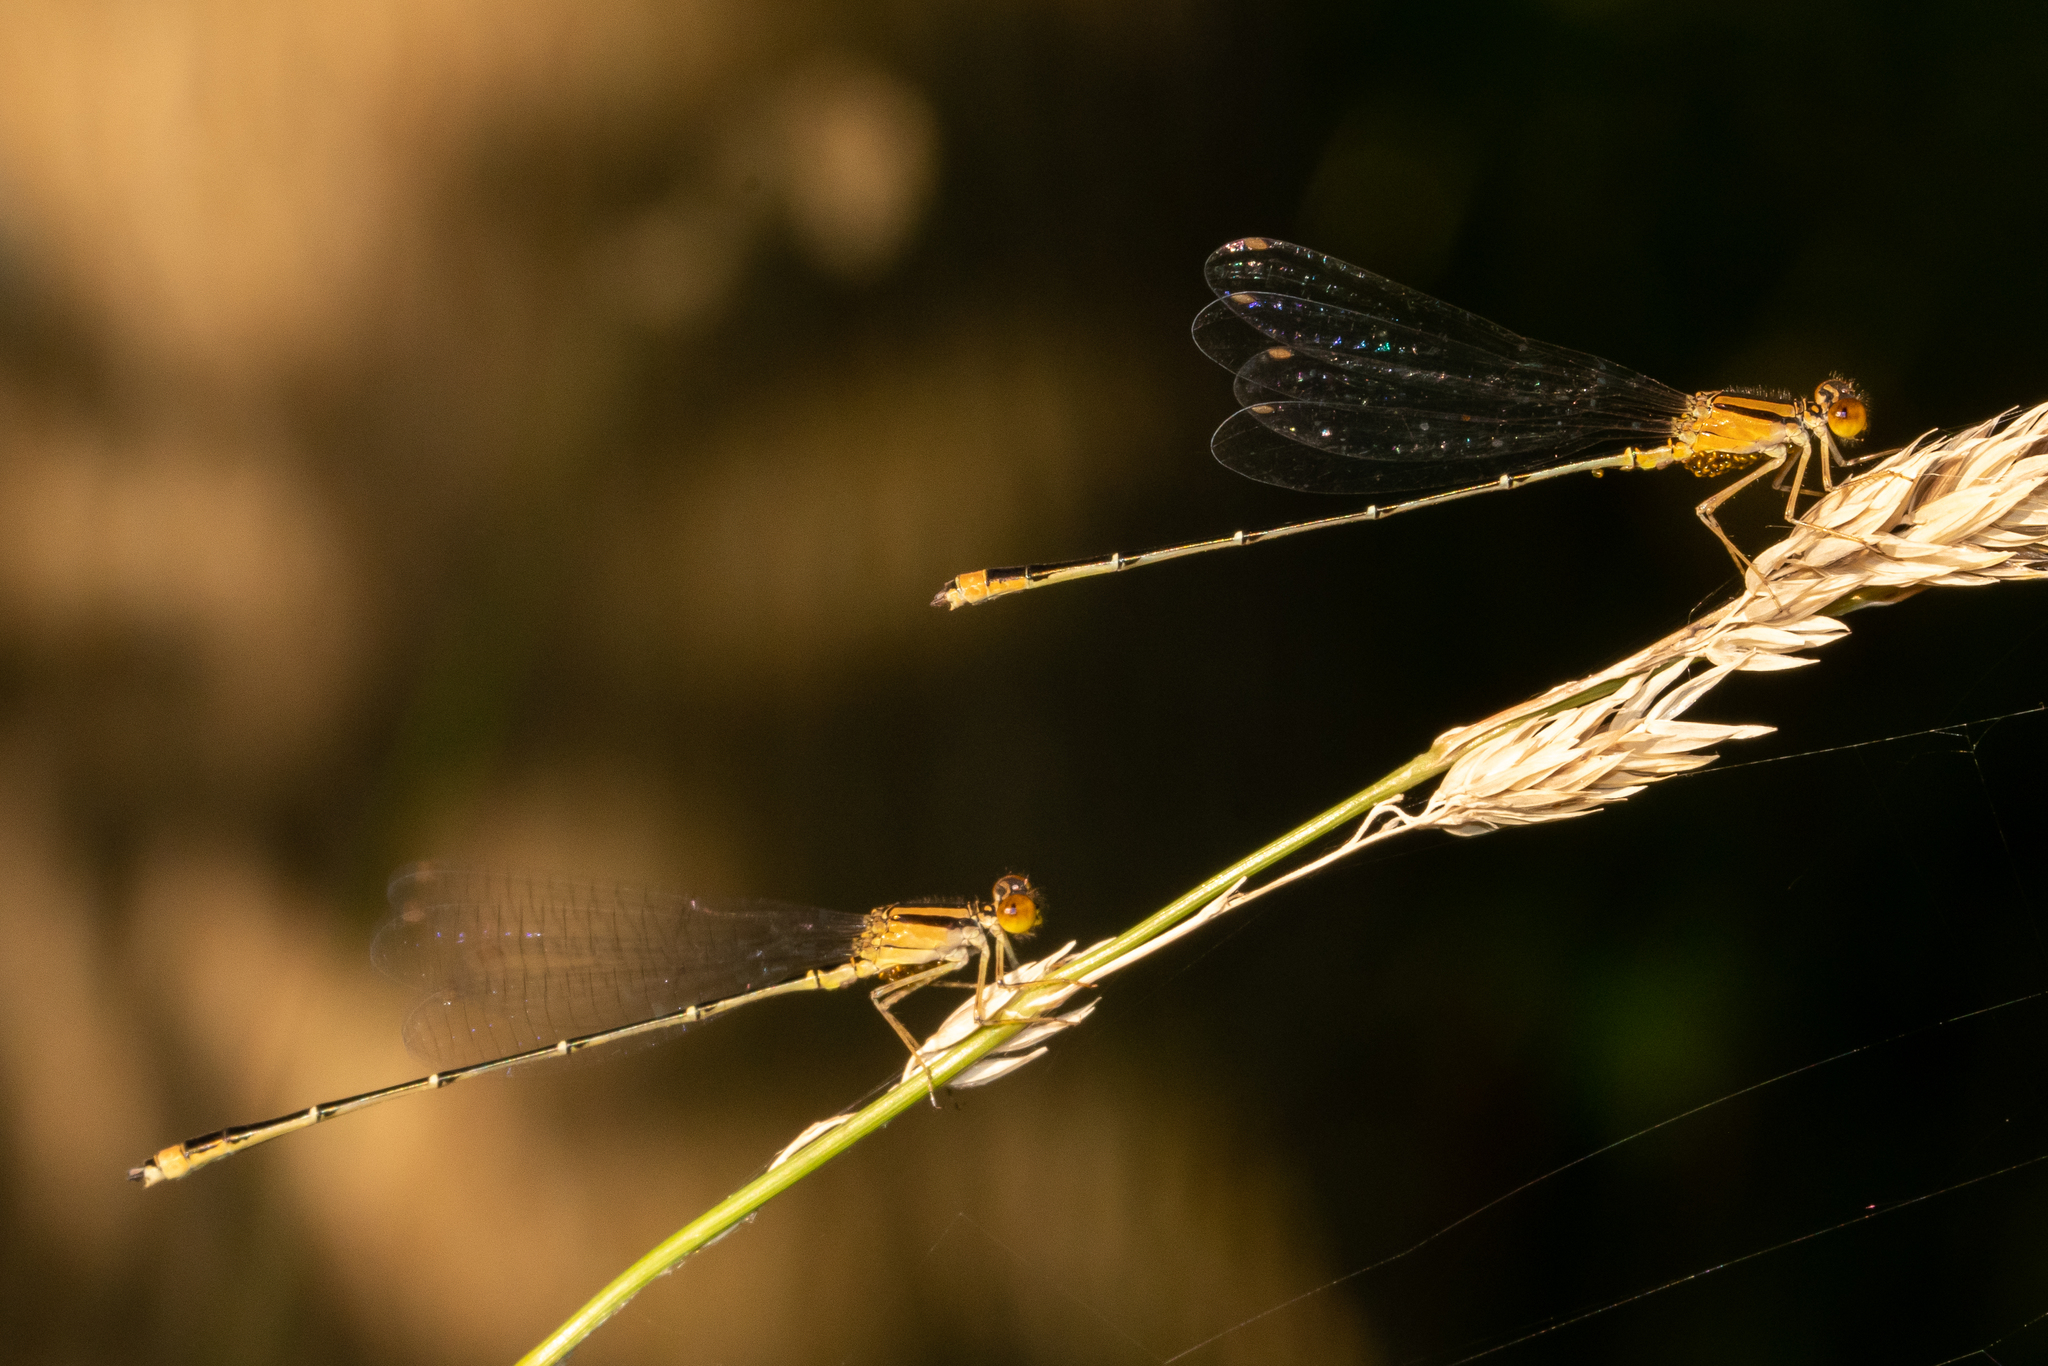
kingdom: Animalia
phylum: Arthropoda
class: Insecta
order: Odonata
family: Coenagrionidae
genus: Enallagma
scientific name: Enallagma signatum
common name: Orange bluet
